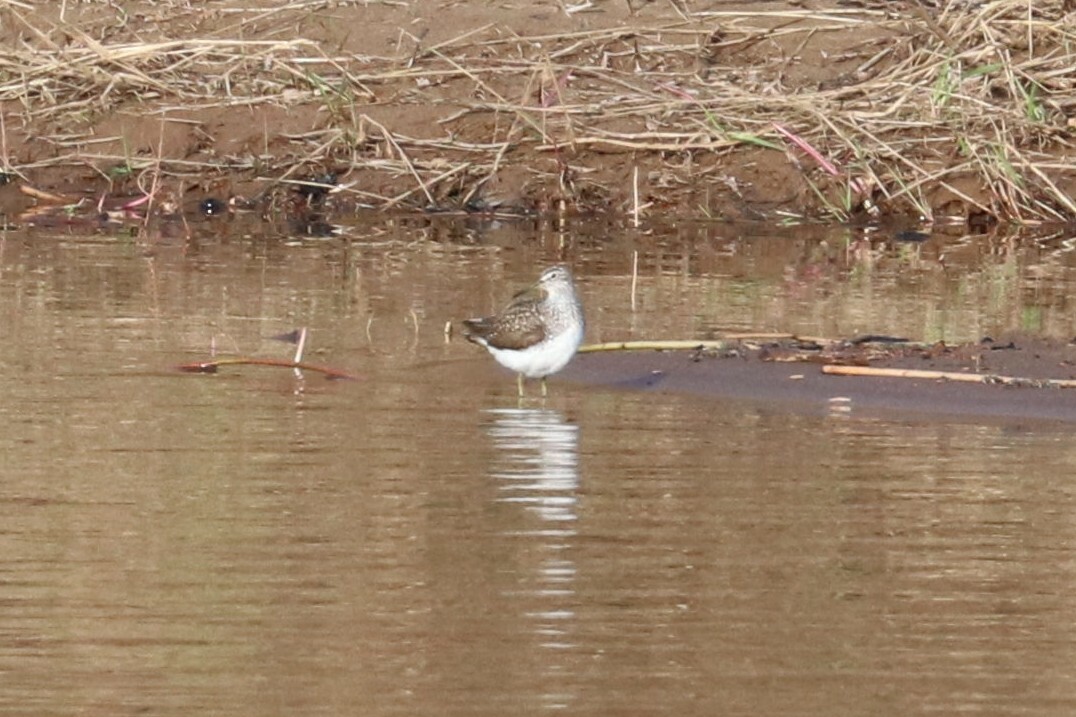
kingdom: Animalia
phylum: Chordata
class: Aves
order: Charadriiformes
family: Scolopacidae
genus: Tringa
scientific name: Tringa ochropus
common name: Green sandpiper
